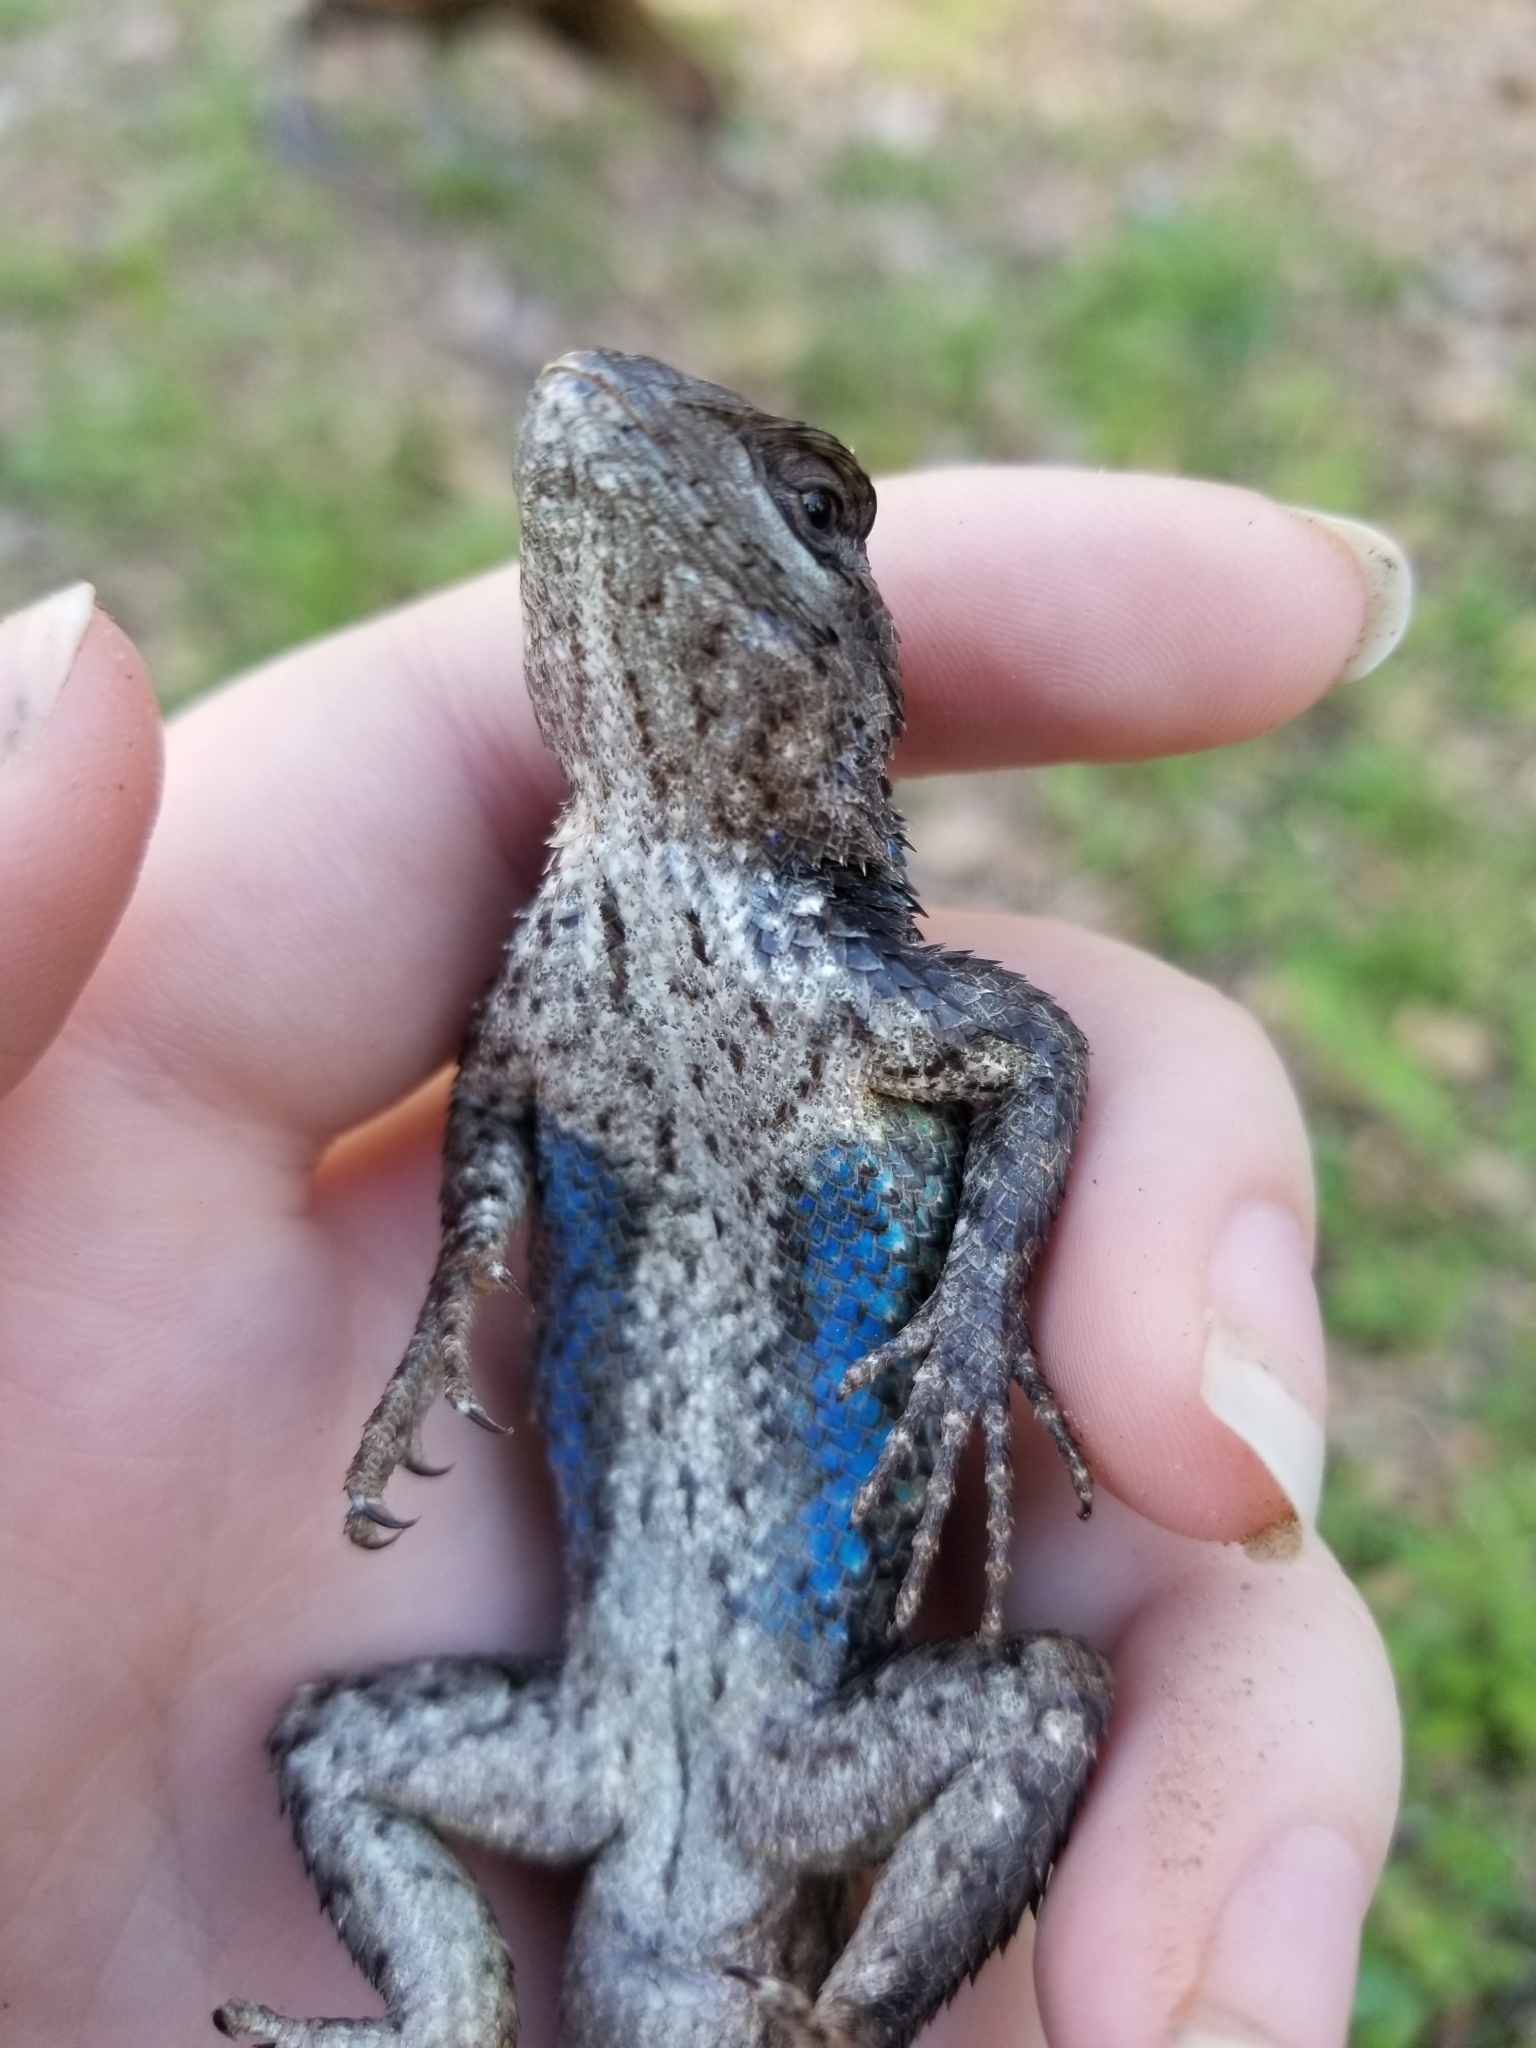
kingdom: Animalia
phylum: Chordata
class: Squamata
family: Phrynosomatidae
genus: Sceloporus
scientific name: Sceloporus olivaceus
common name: Texas spiny lizard
